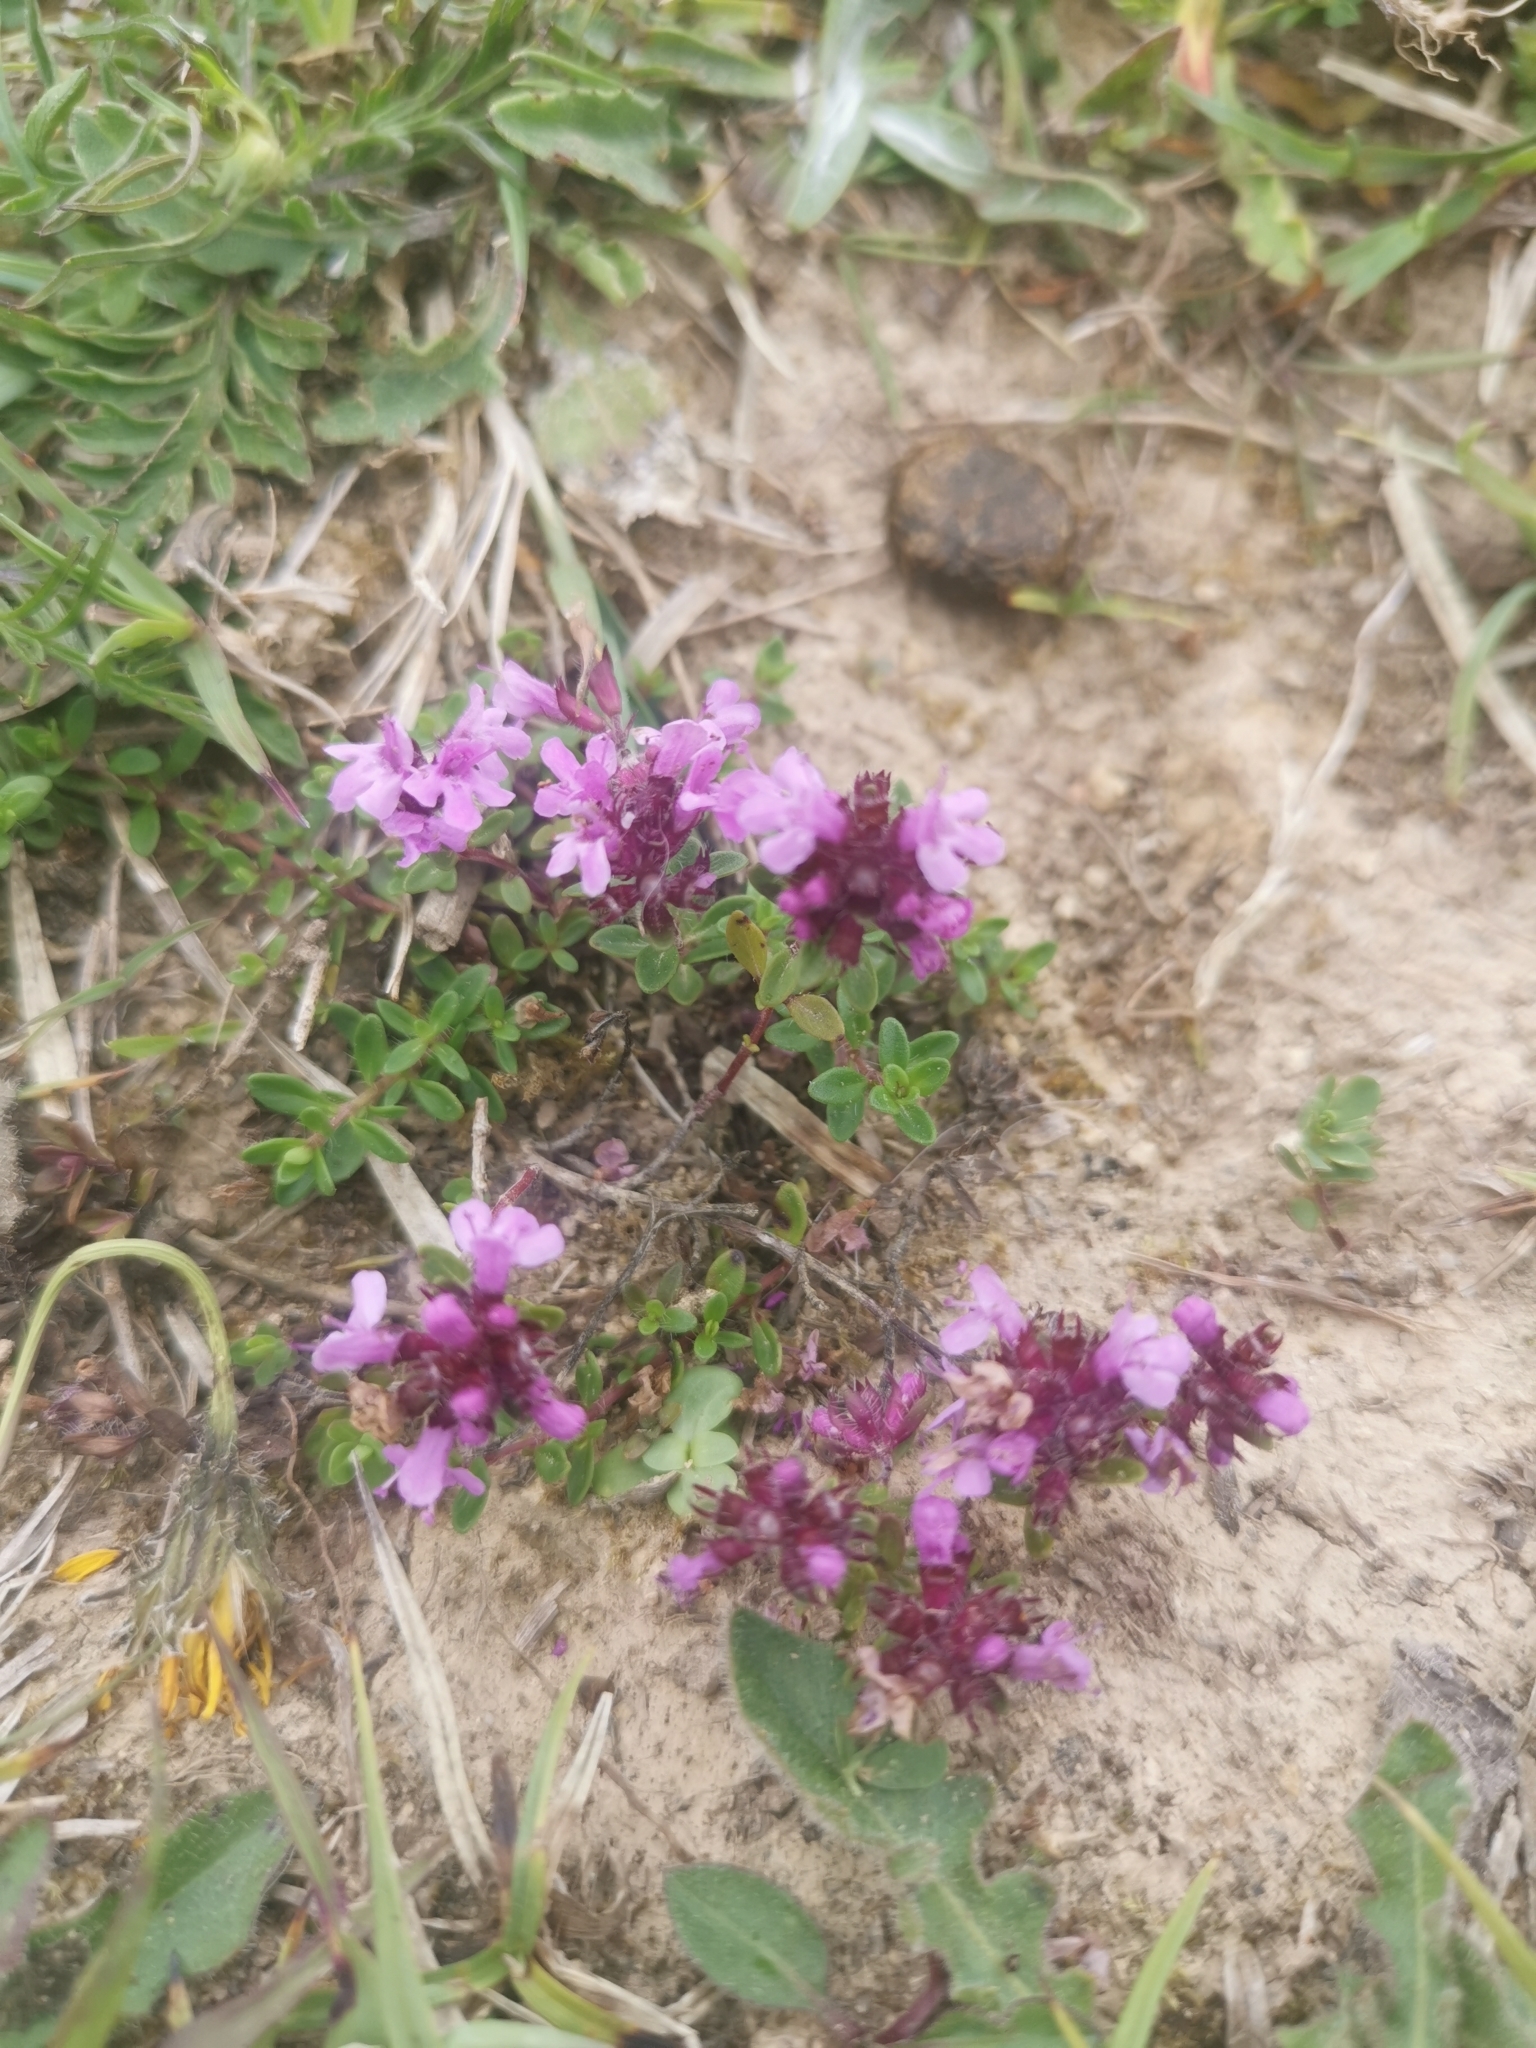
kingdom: Plantae
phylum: Tracheophyta
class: Magnoliopsida
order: Lamiales
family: Lamiaceae
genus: Thymus
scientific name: Thymus praecox
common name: Wild thyme
